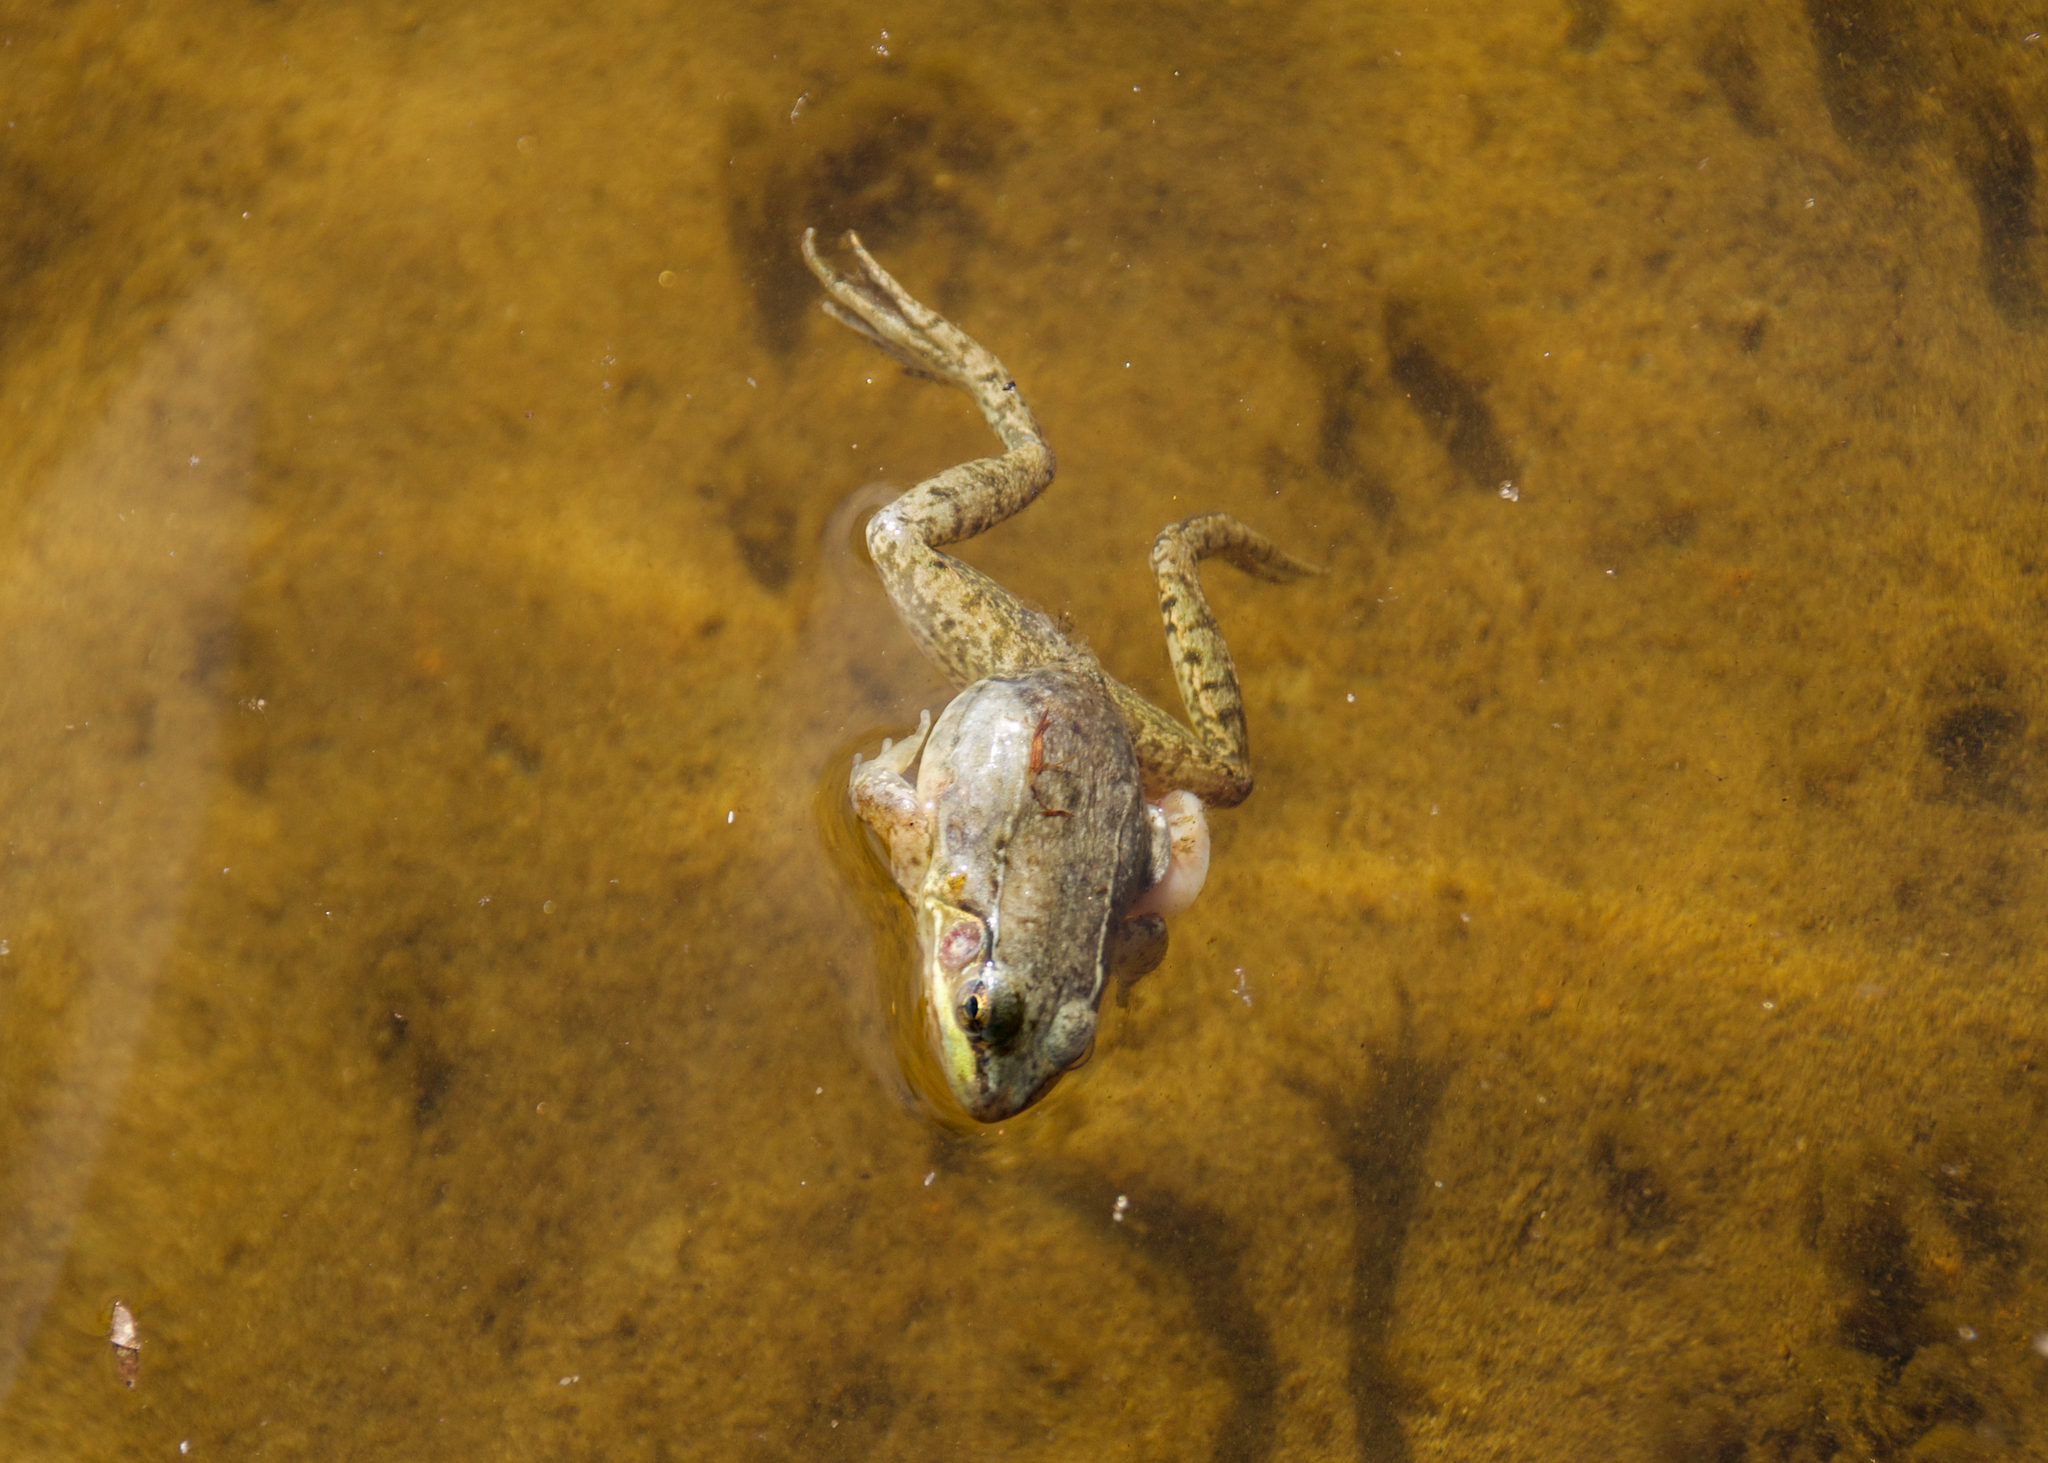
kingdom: Animalia
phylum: Chordata
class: Amphibia
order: Anura
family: Ranidae
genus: Lithobates
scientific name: Lithobates clamitans
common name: Green frog
